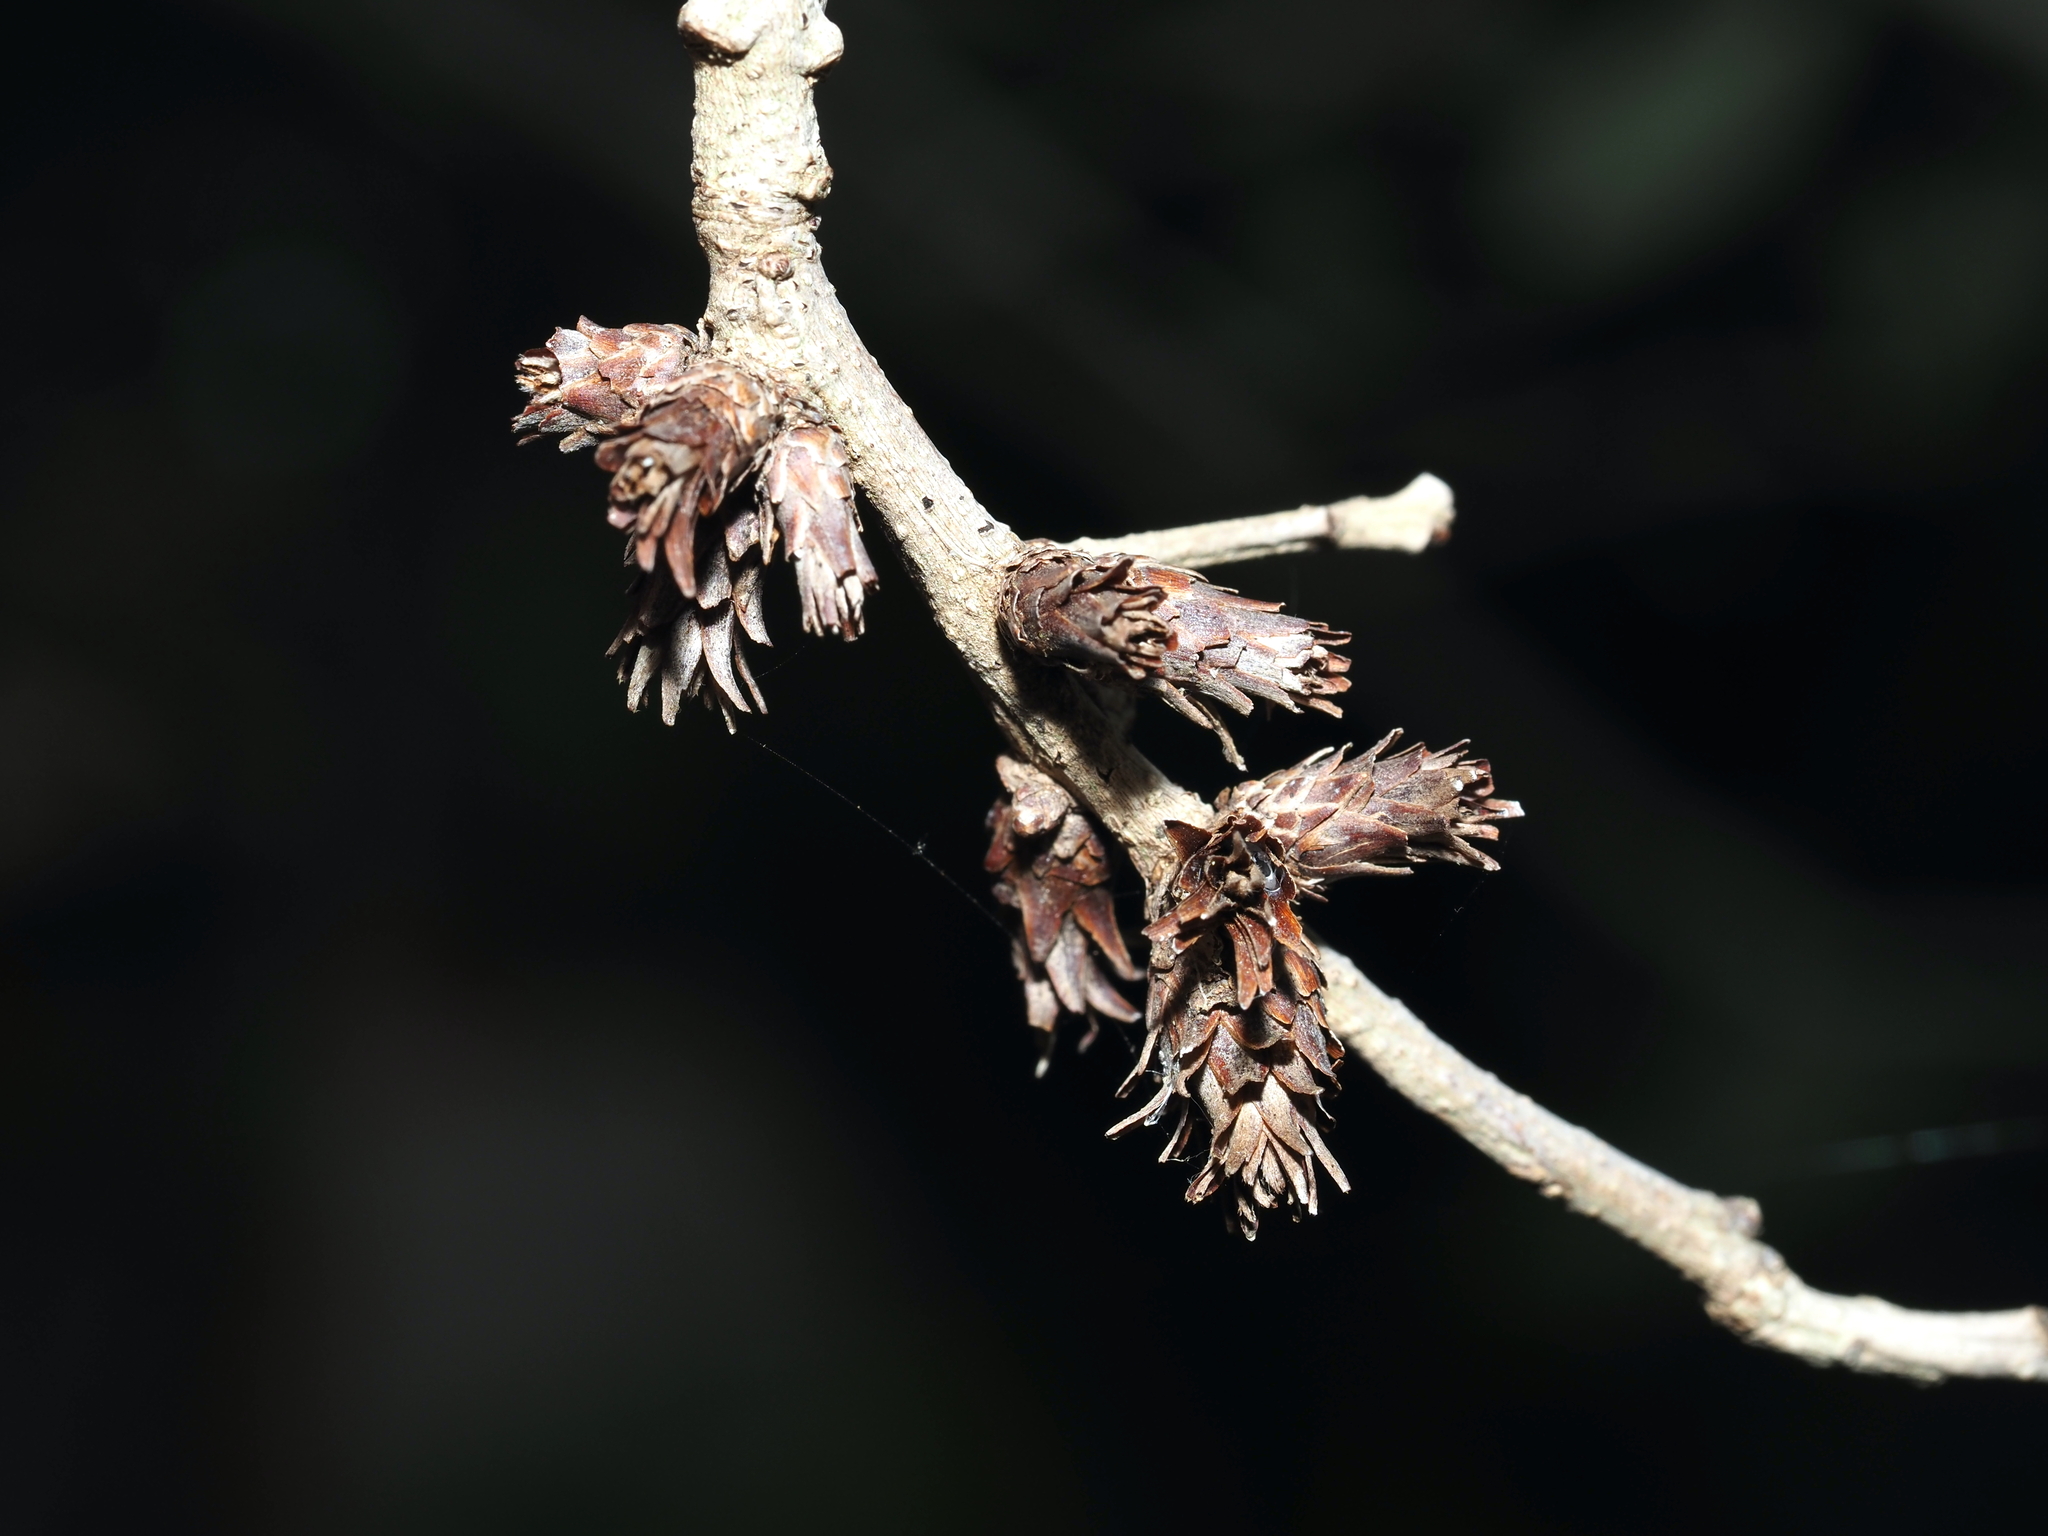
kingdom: Animalia
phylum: Arthropoda
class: Insecta
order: Diptera
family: Cecidomyiidae
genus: Arnoldiola
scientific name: Arnoldiola atra
